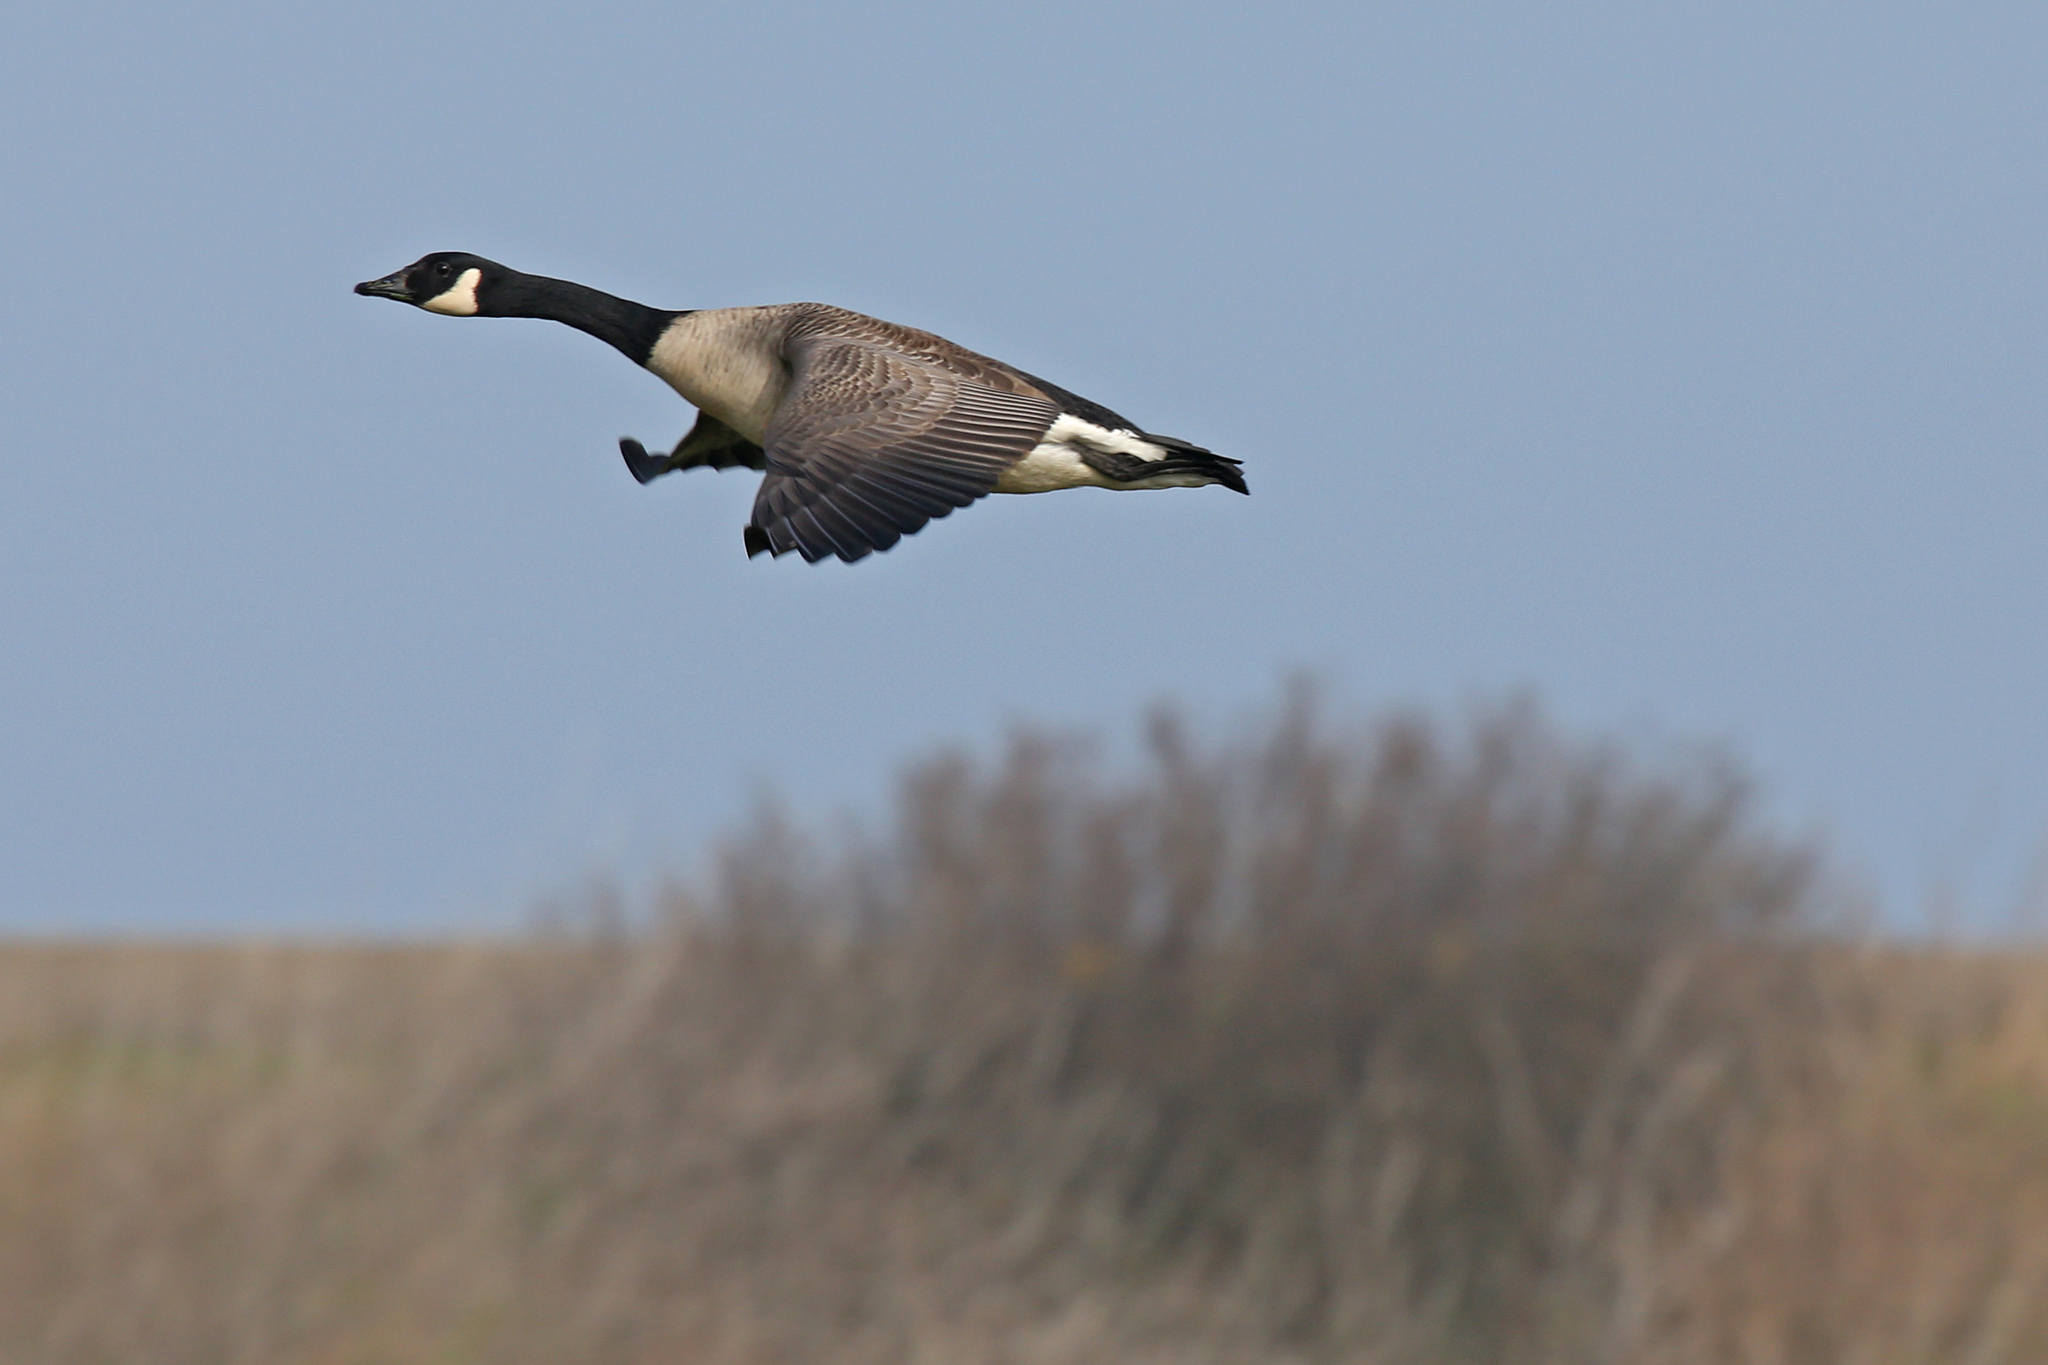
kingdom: Animalia
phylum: Chordata
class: Aves
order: Anseriformes
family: Anatidae
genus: Branta
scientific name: Branta canadensis
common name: Canada goose
